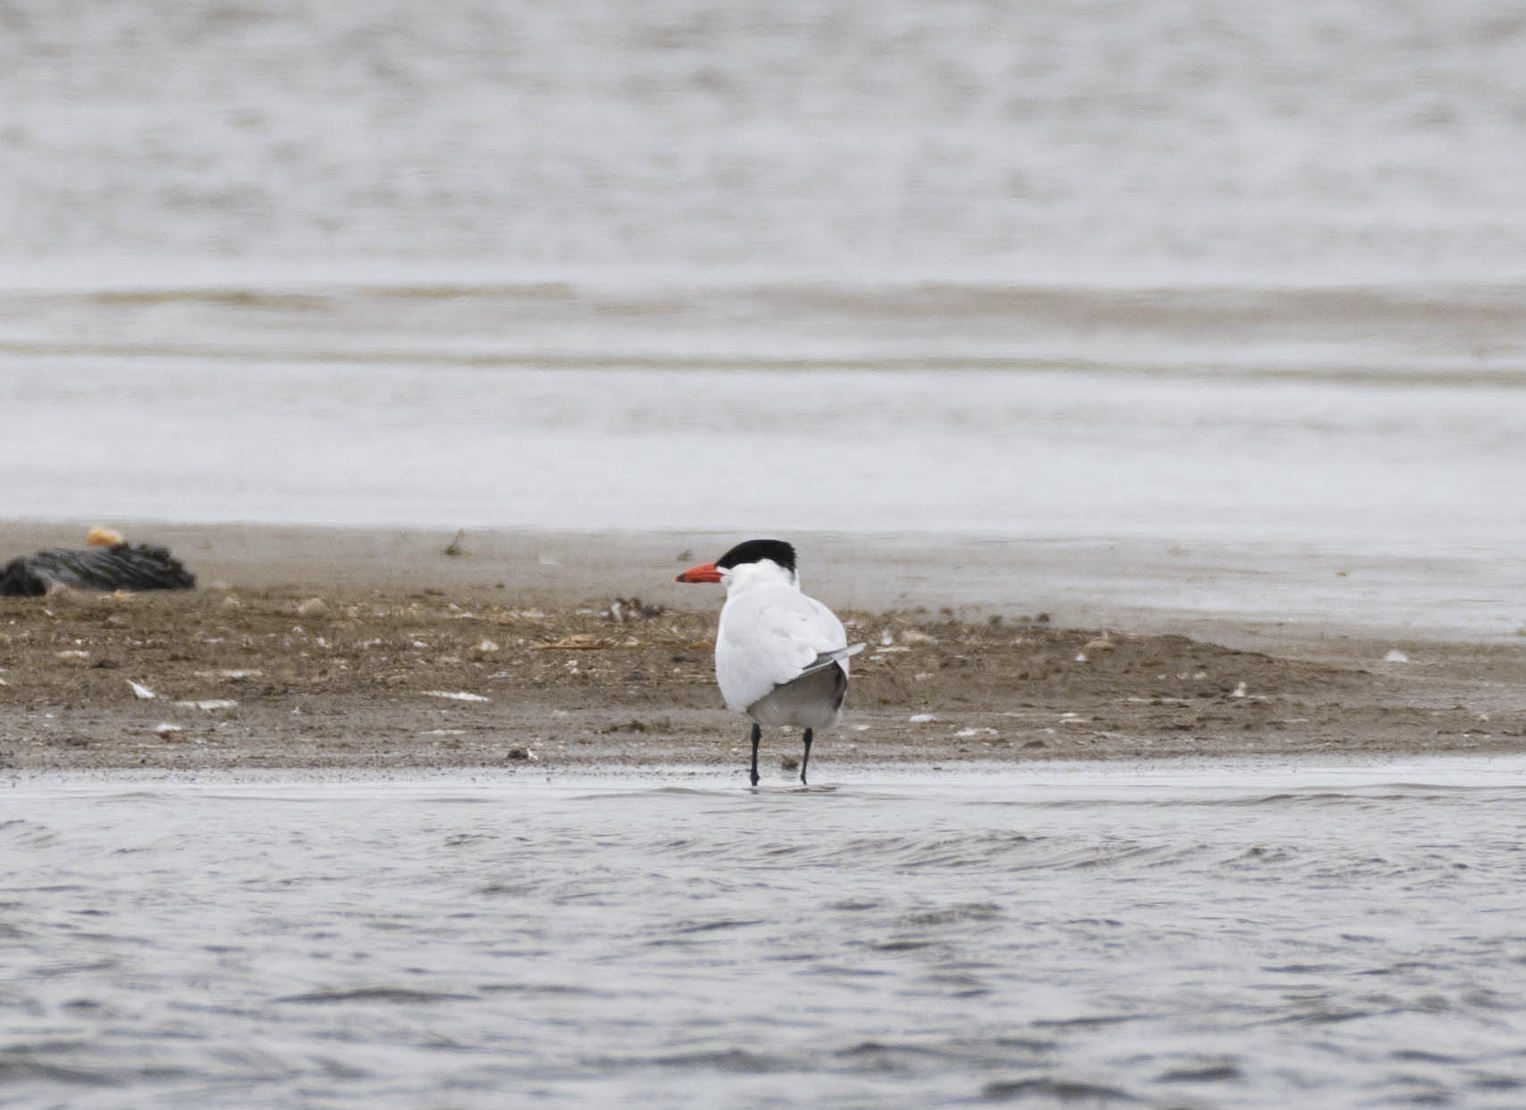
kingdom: Animalia
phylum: Chordata
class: Aves
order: Charadriiformes
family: Laridae
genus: Hydroprogne
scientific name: Hydroprogne caspia
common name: Caspian tern
